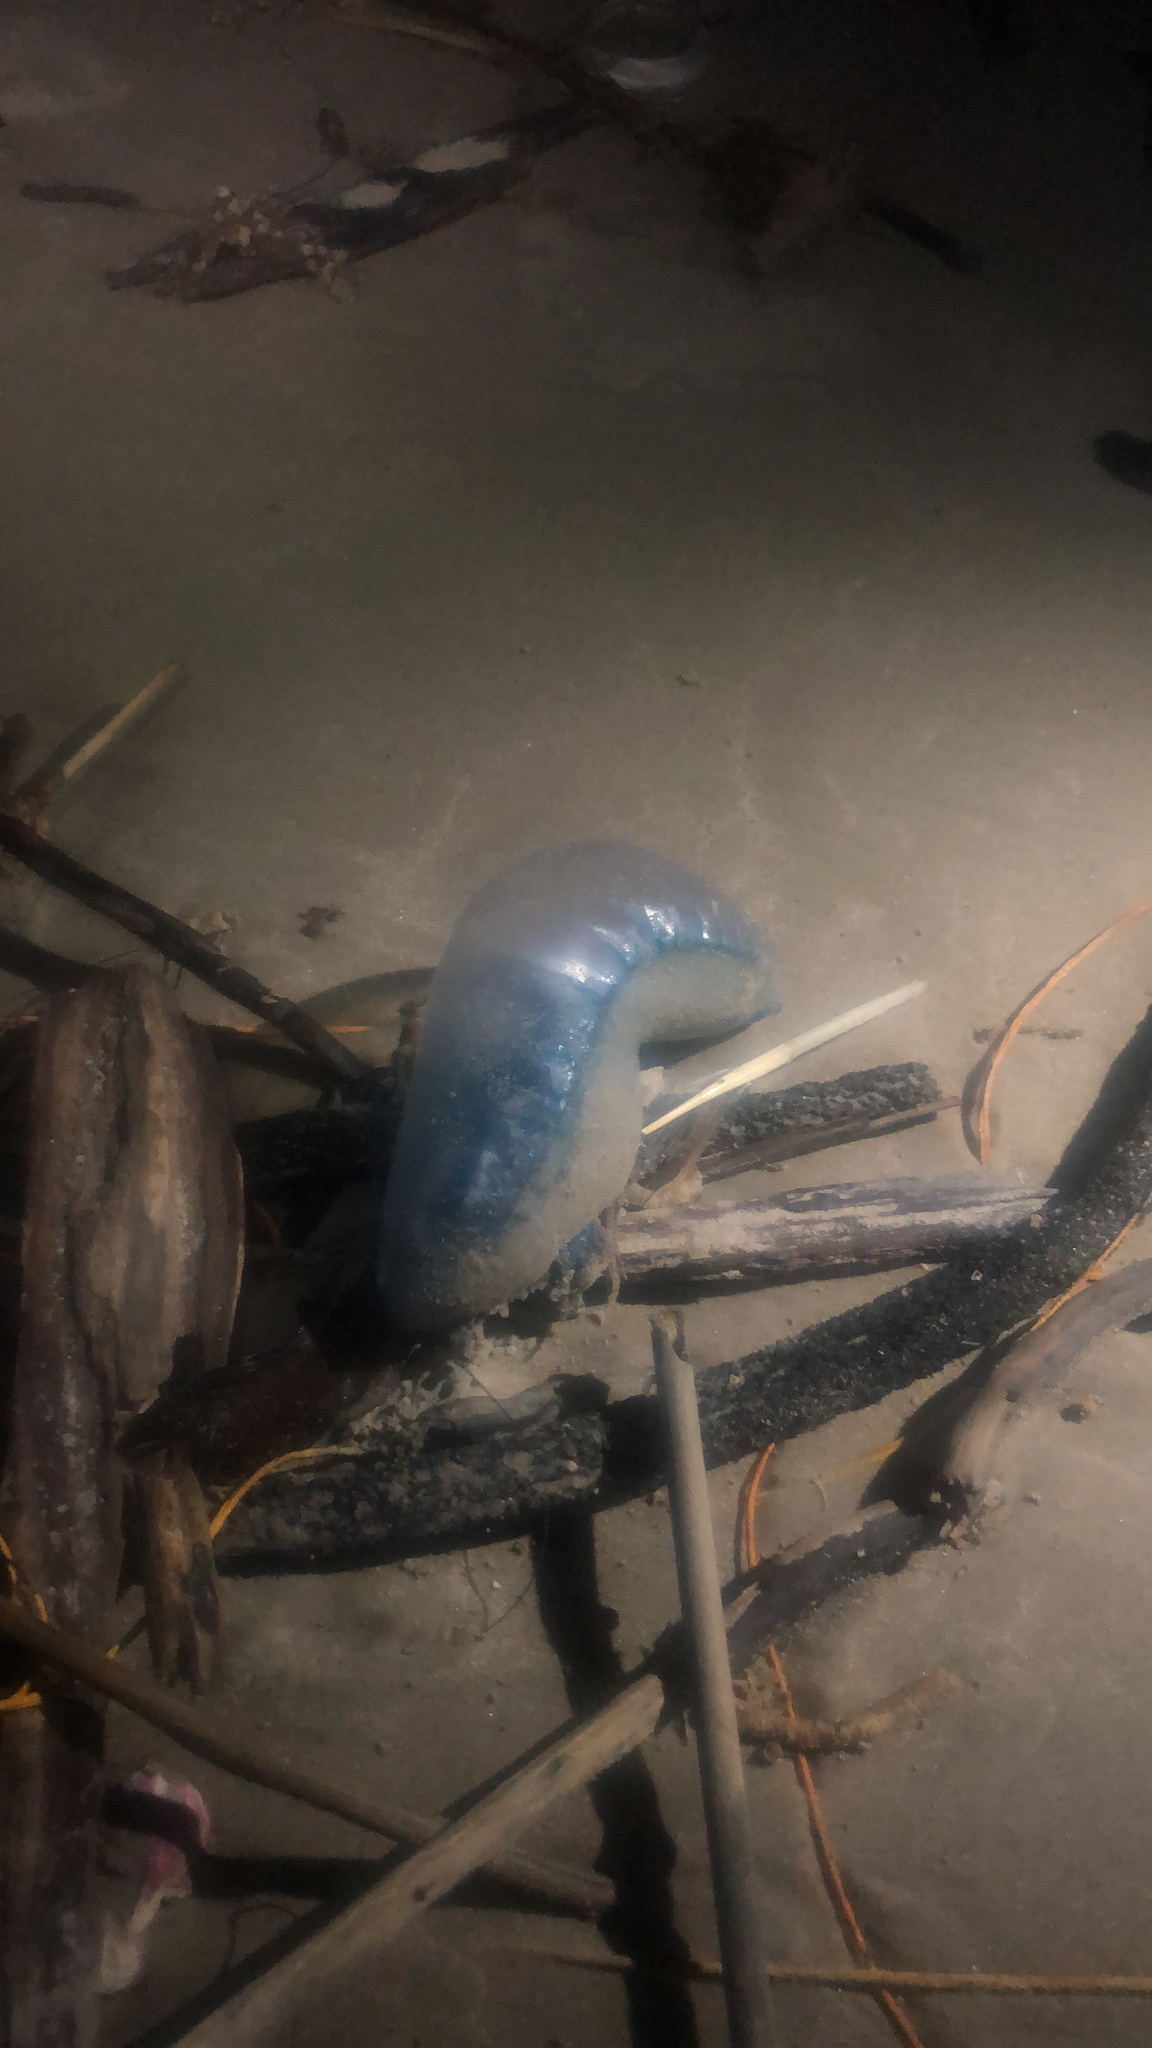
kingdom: Animalia
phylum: Cnidaria
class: Hydrozoa
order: Siphonophorae
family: Physaliidae
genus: Physalia
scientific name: Physalia physalis
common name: Portuguese man-of-war
